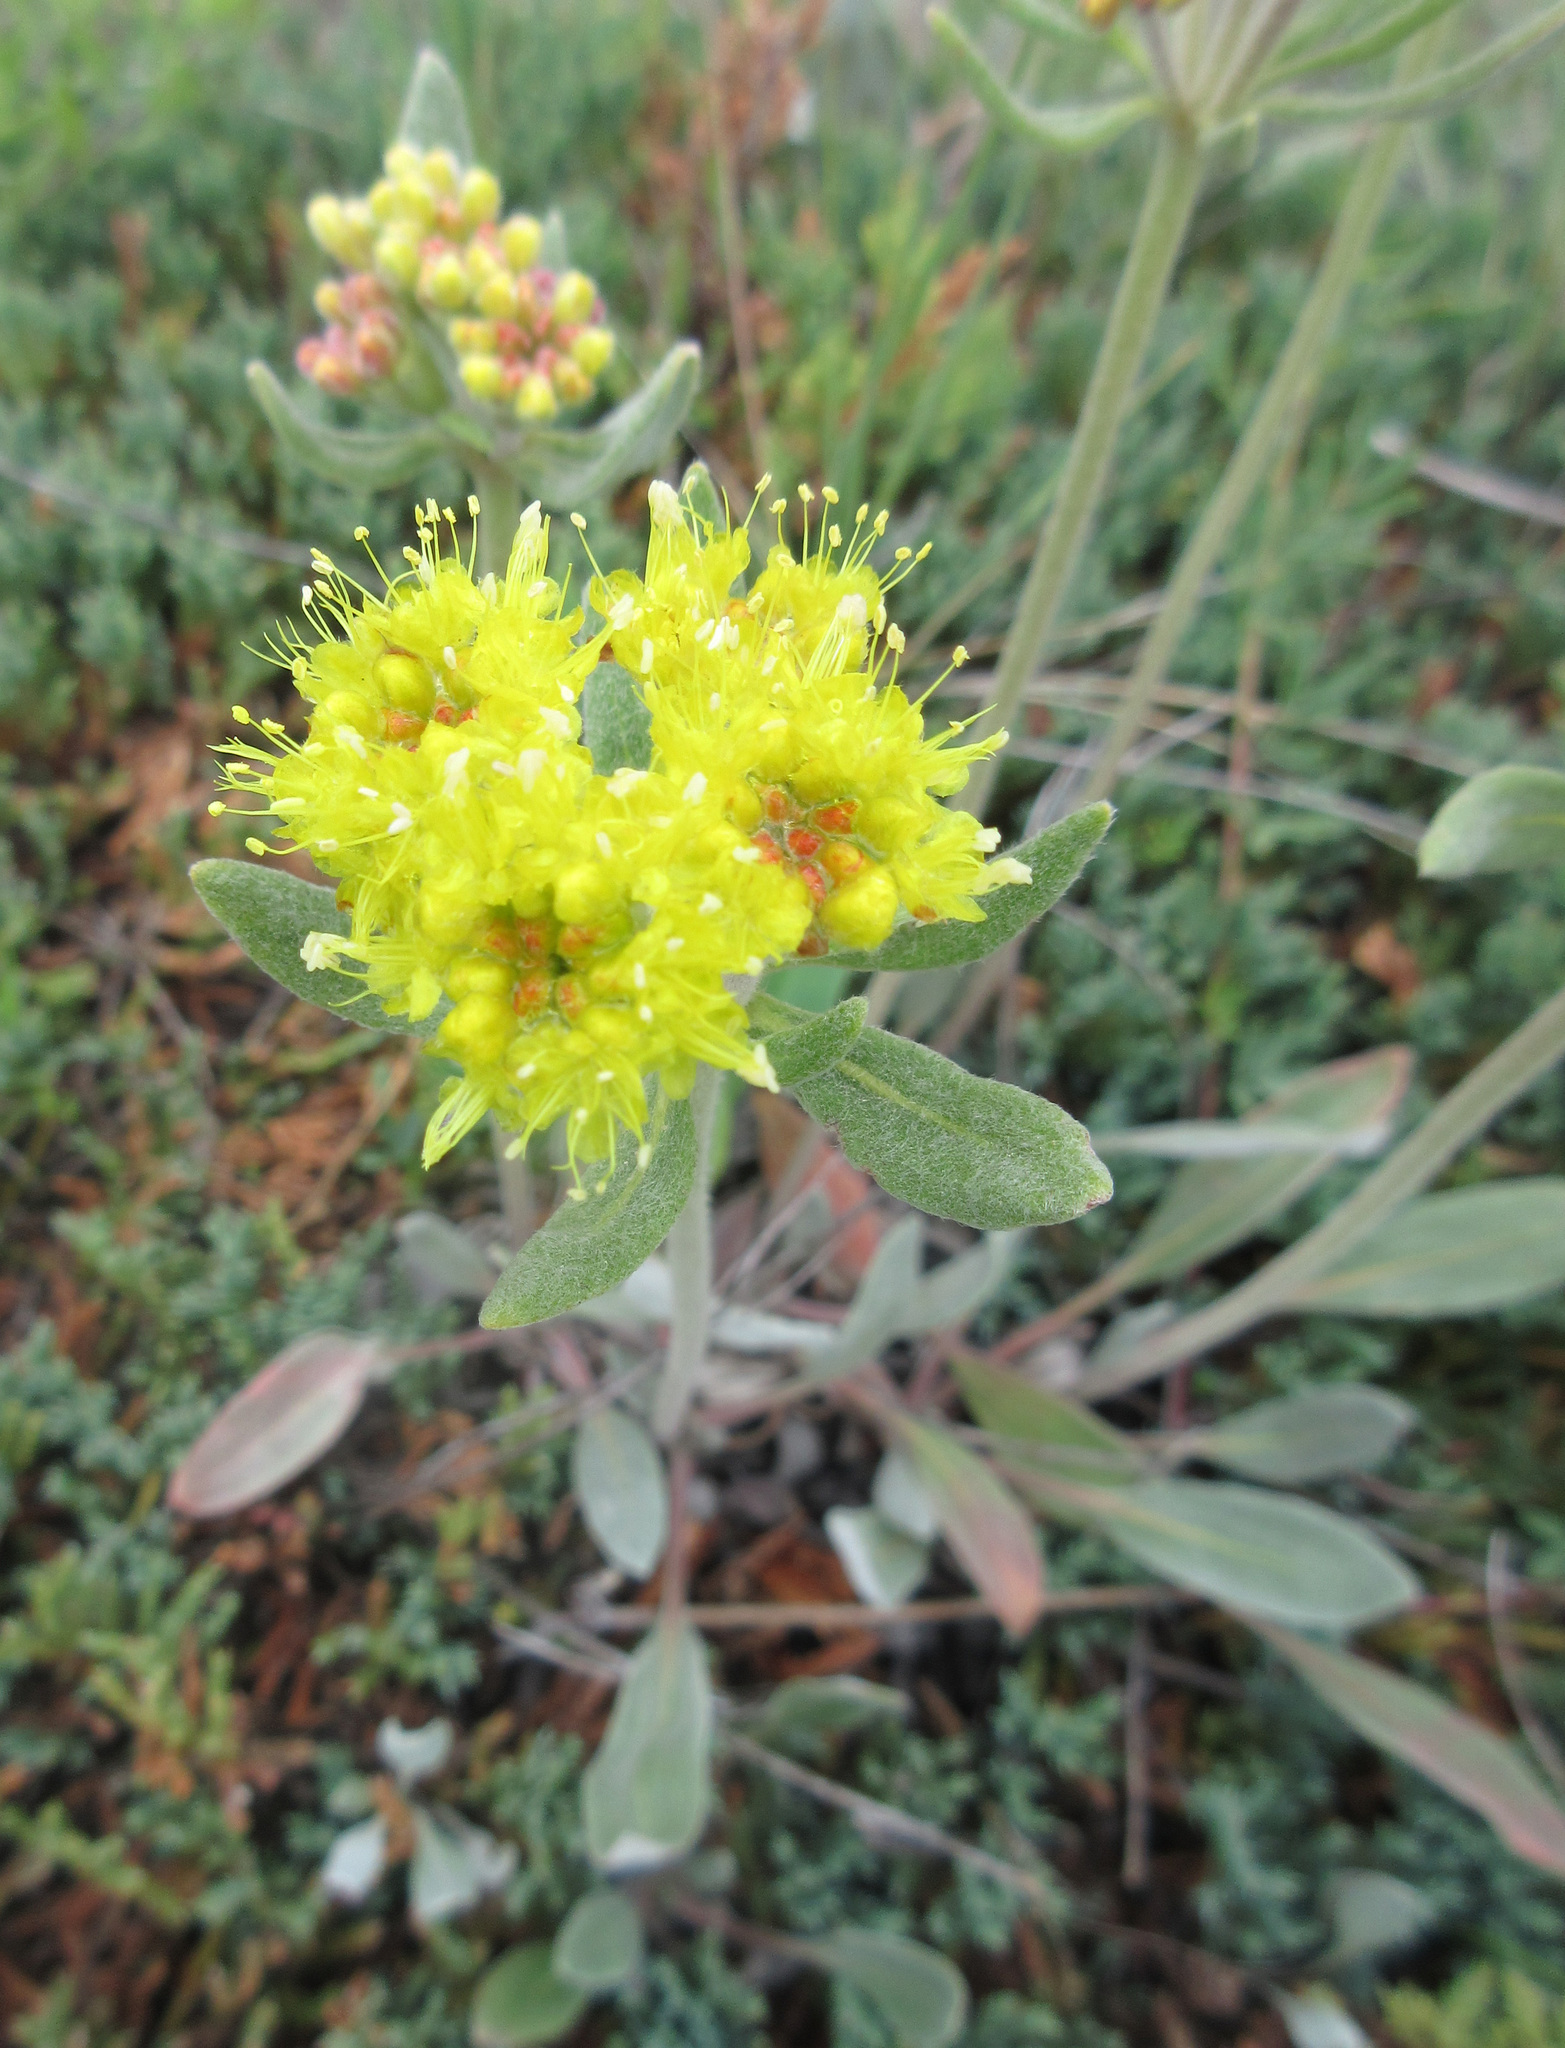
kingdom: Plantae
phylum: Tracheophyta
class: Magnoliopsida
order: Caryophyllales
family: Polygonaceae
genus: Eriogonum
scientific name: Eriogonum flavum
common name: Alpine golden wild buckwheat
